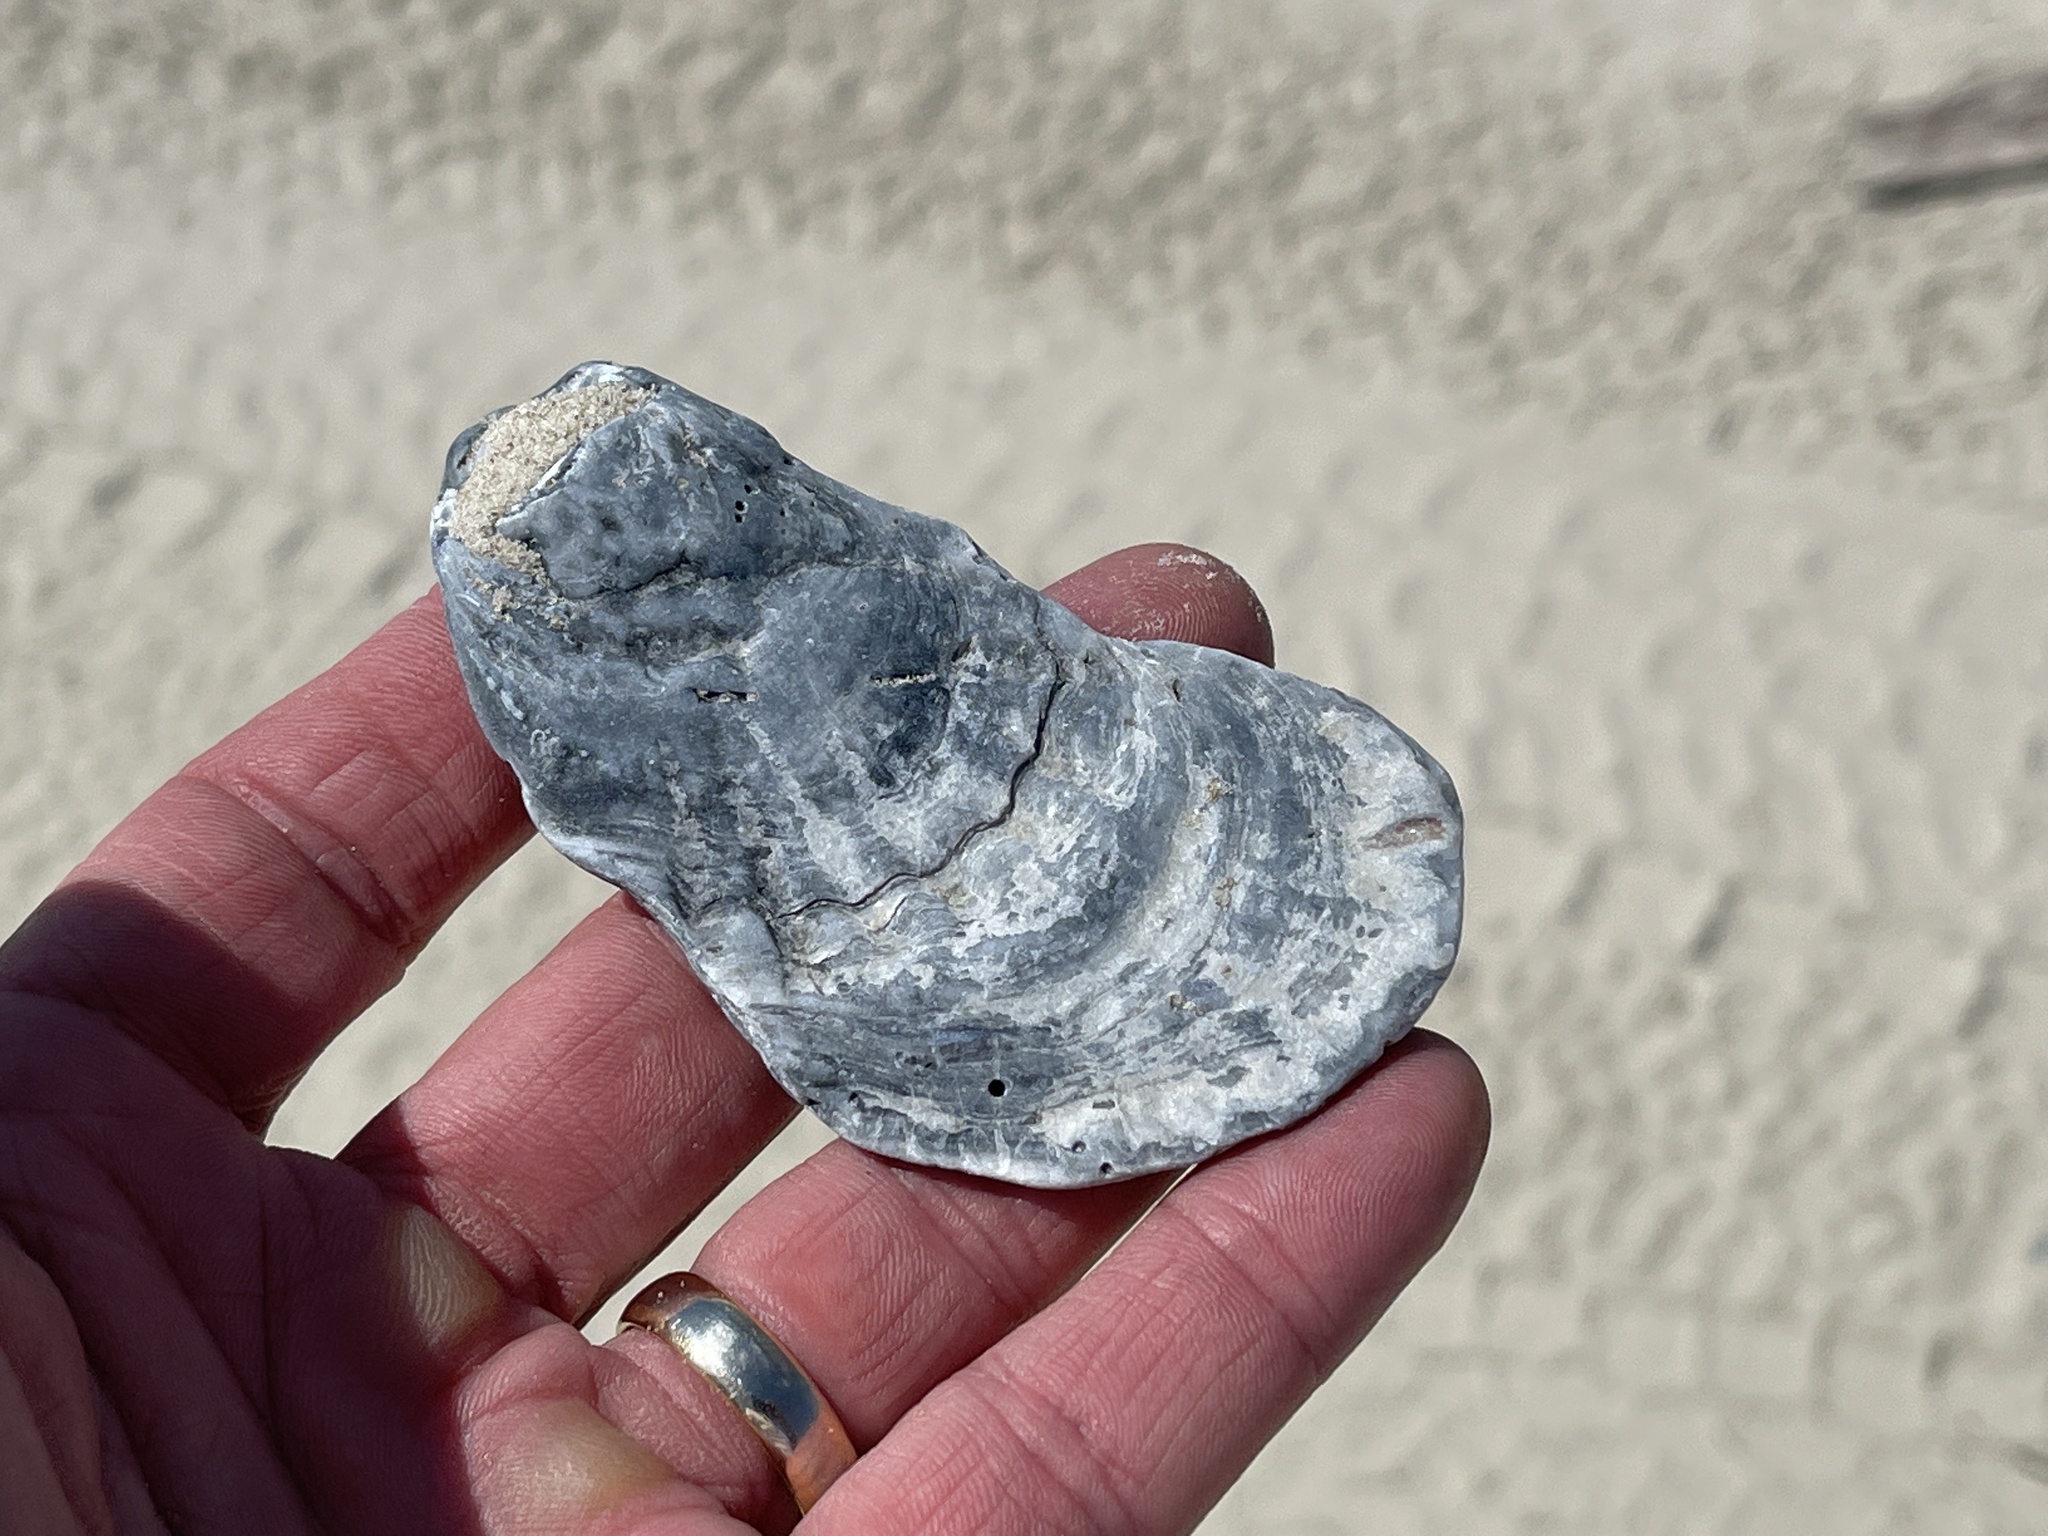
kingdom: Animalia
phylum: Mollusca
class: Bivalvia
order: Ostreida
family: Ostreidae
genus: Crassostrea
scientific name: Crassostrea virginica
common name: American oyster
